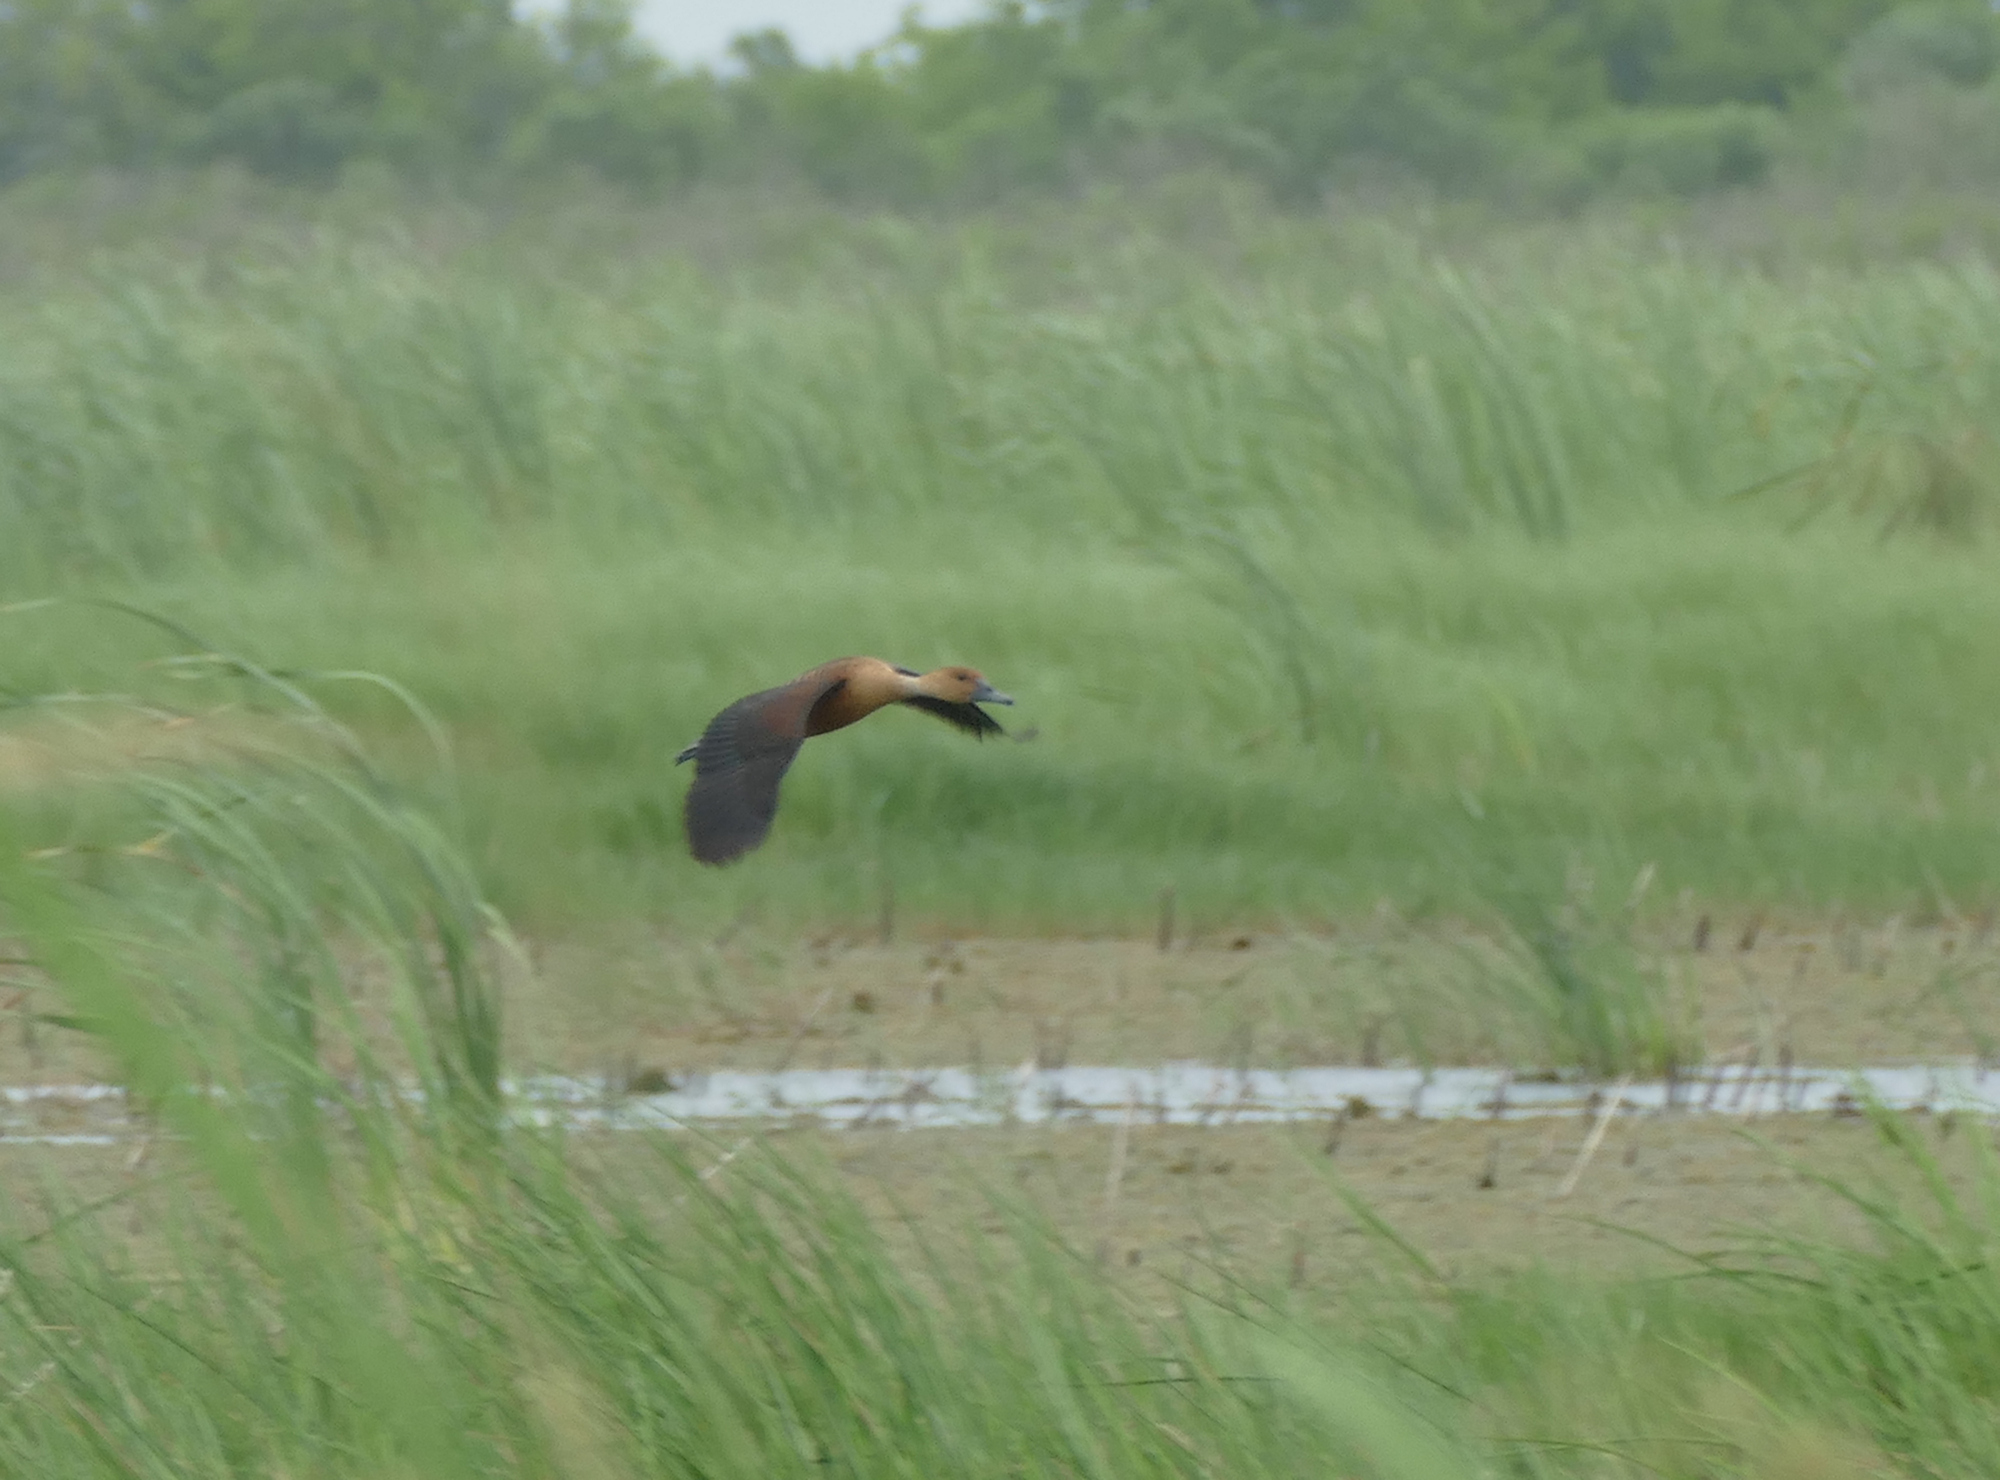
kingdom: Animalia
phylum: Chordata
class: Aves
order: Anseriformes
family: Anatidae
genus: Dendrocygna
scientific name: Dendrocygna bicolor
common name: Fulvous whistling duck
